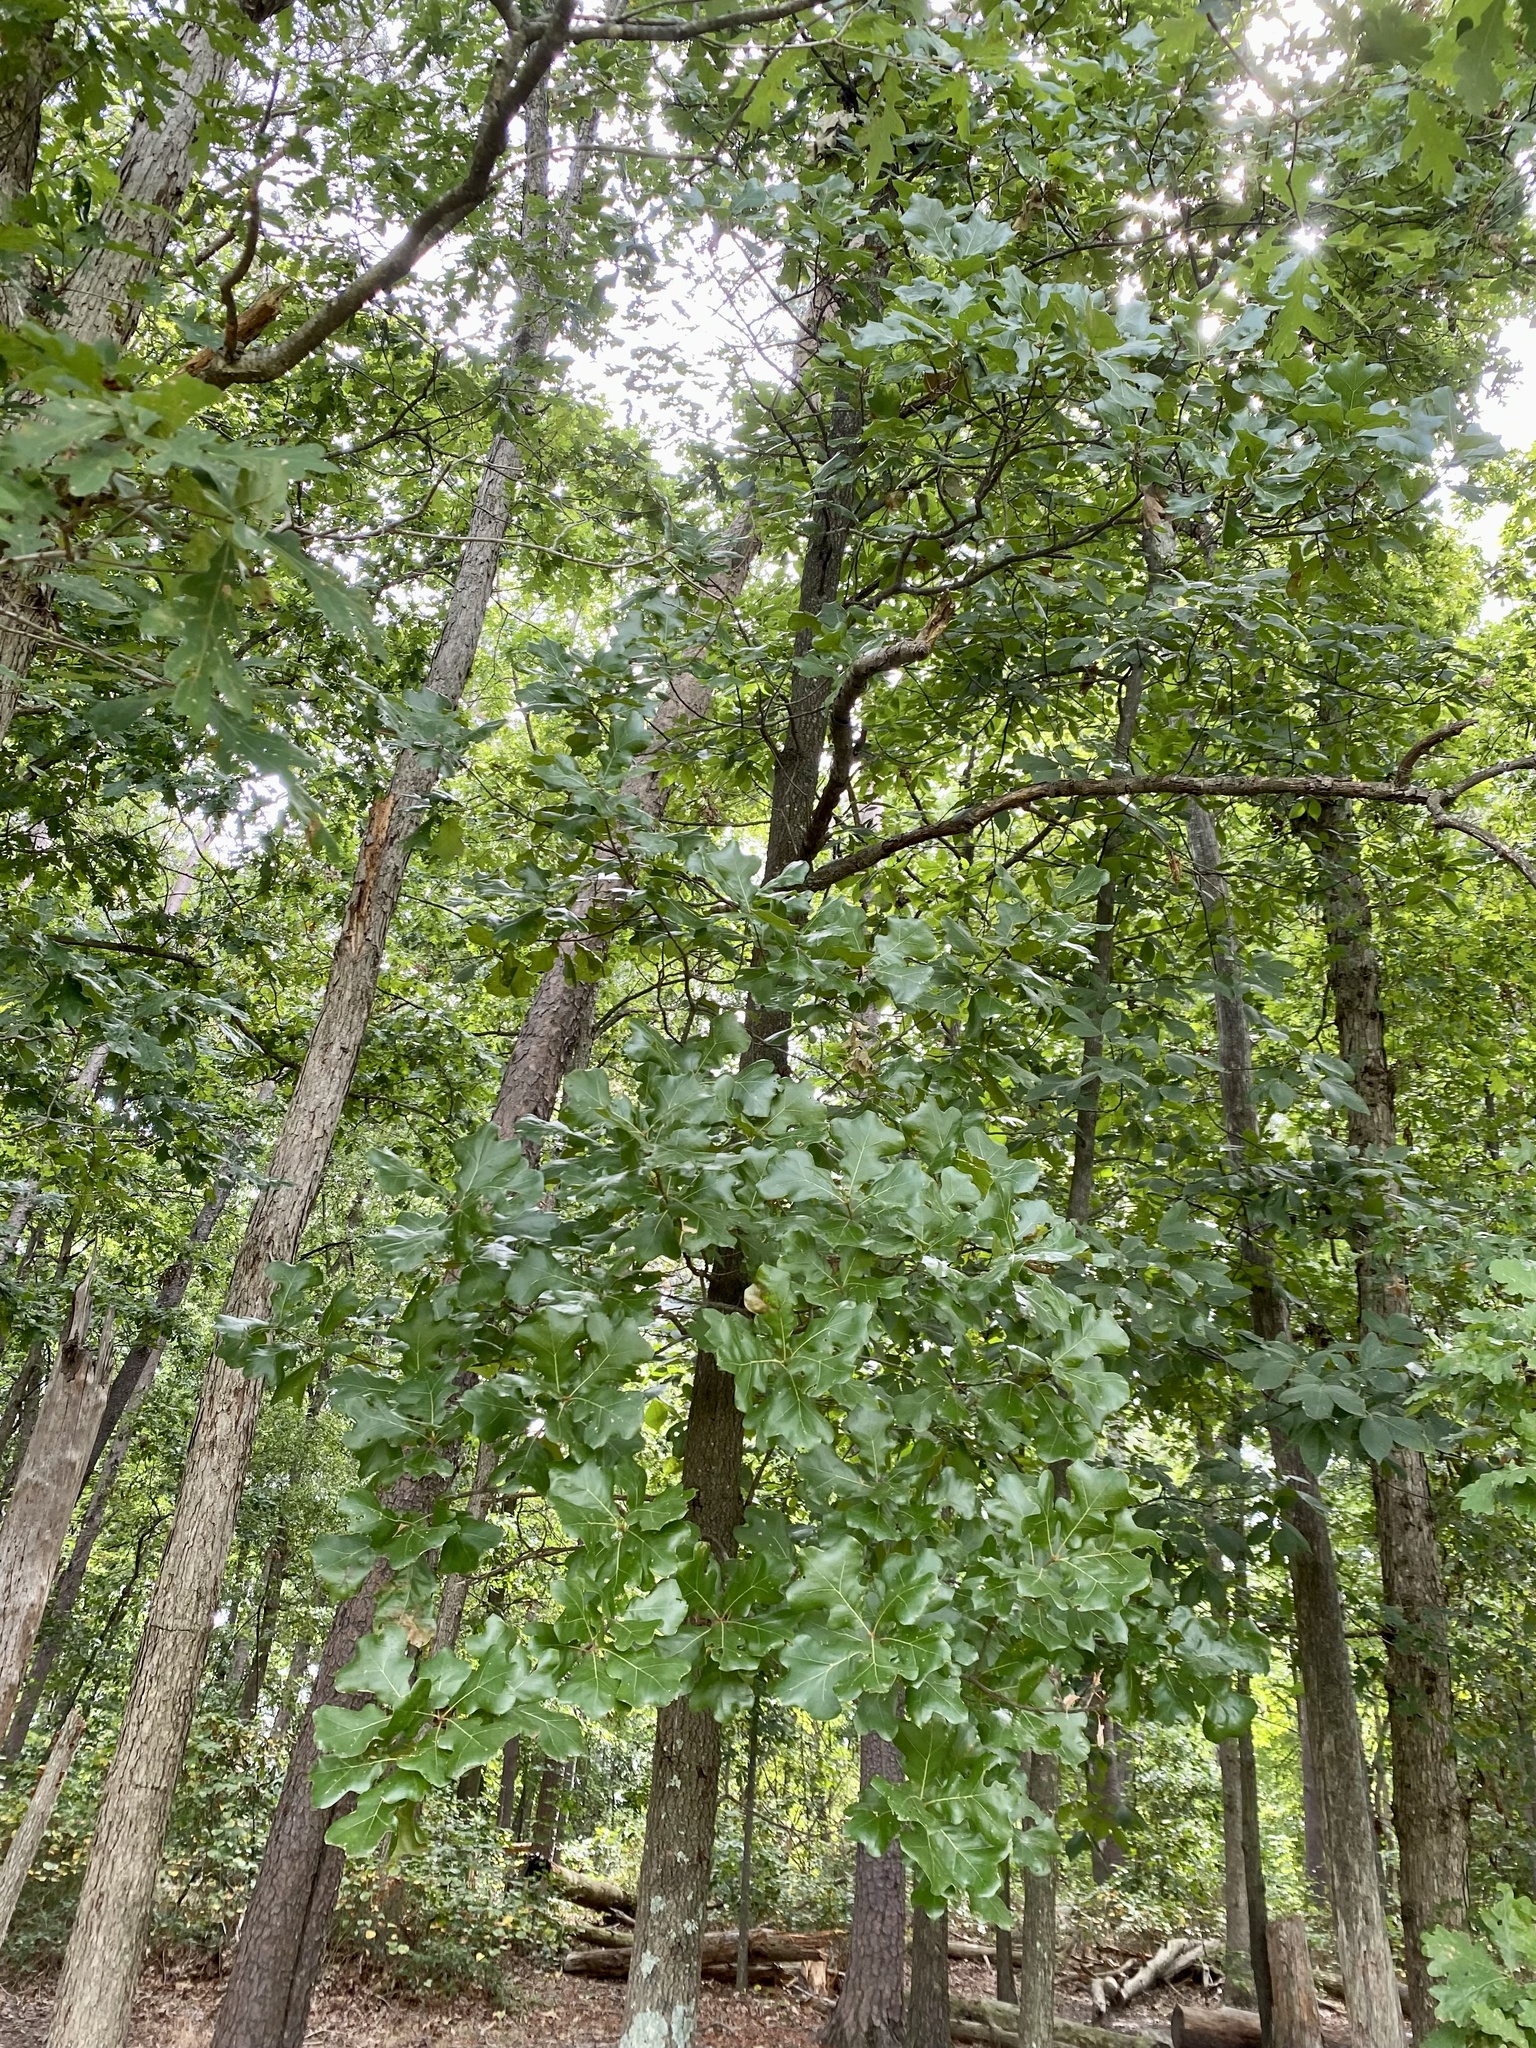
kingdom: Plantae
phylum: Tracheophyta
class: Magnoliopsida
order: Fagales
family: Fagaceae
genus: Quercus
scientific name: Quercus marilandica
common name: Blackjack oak
